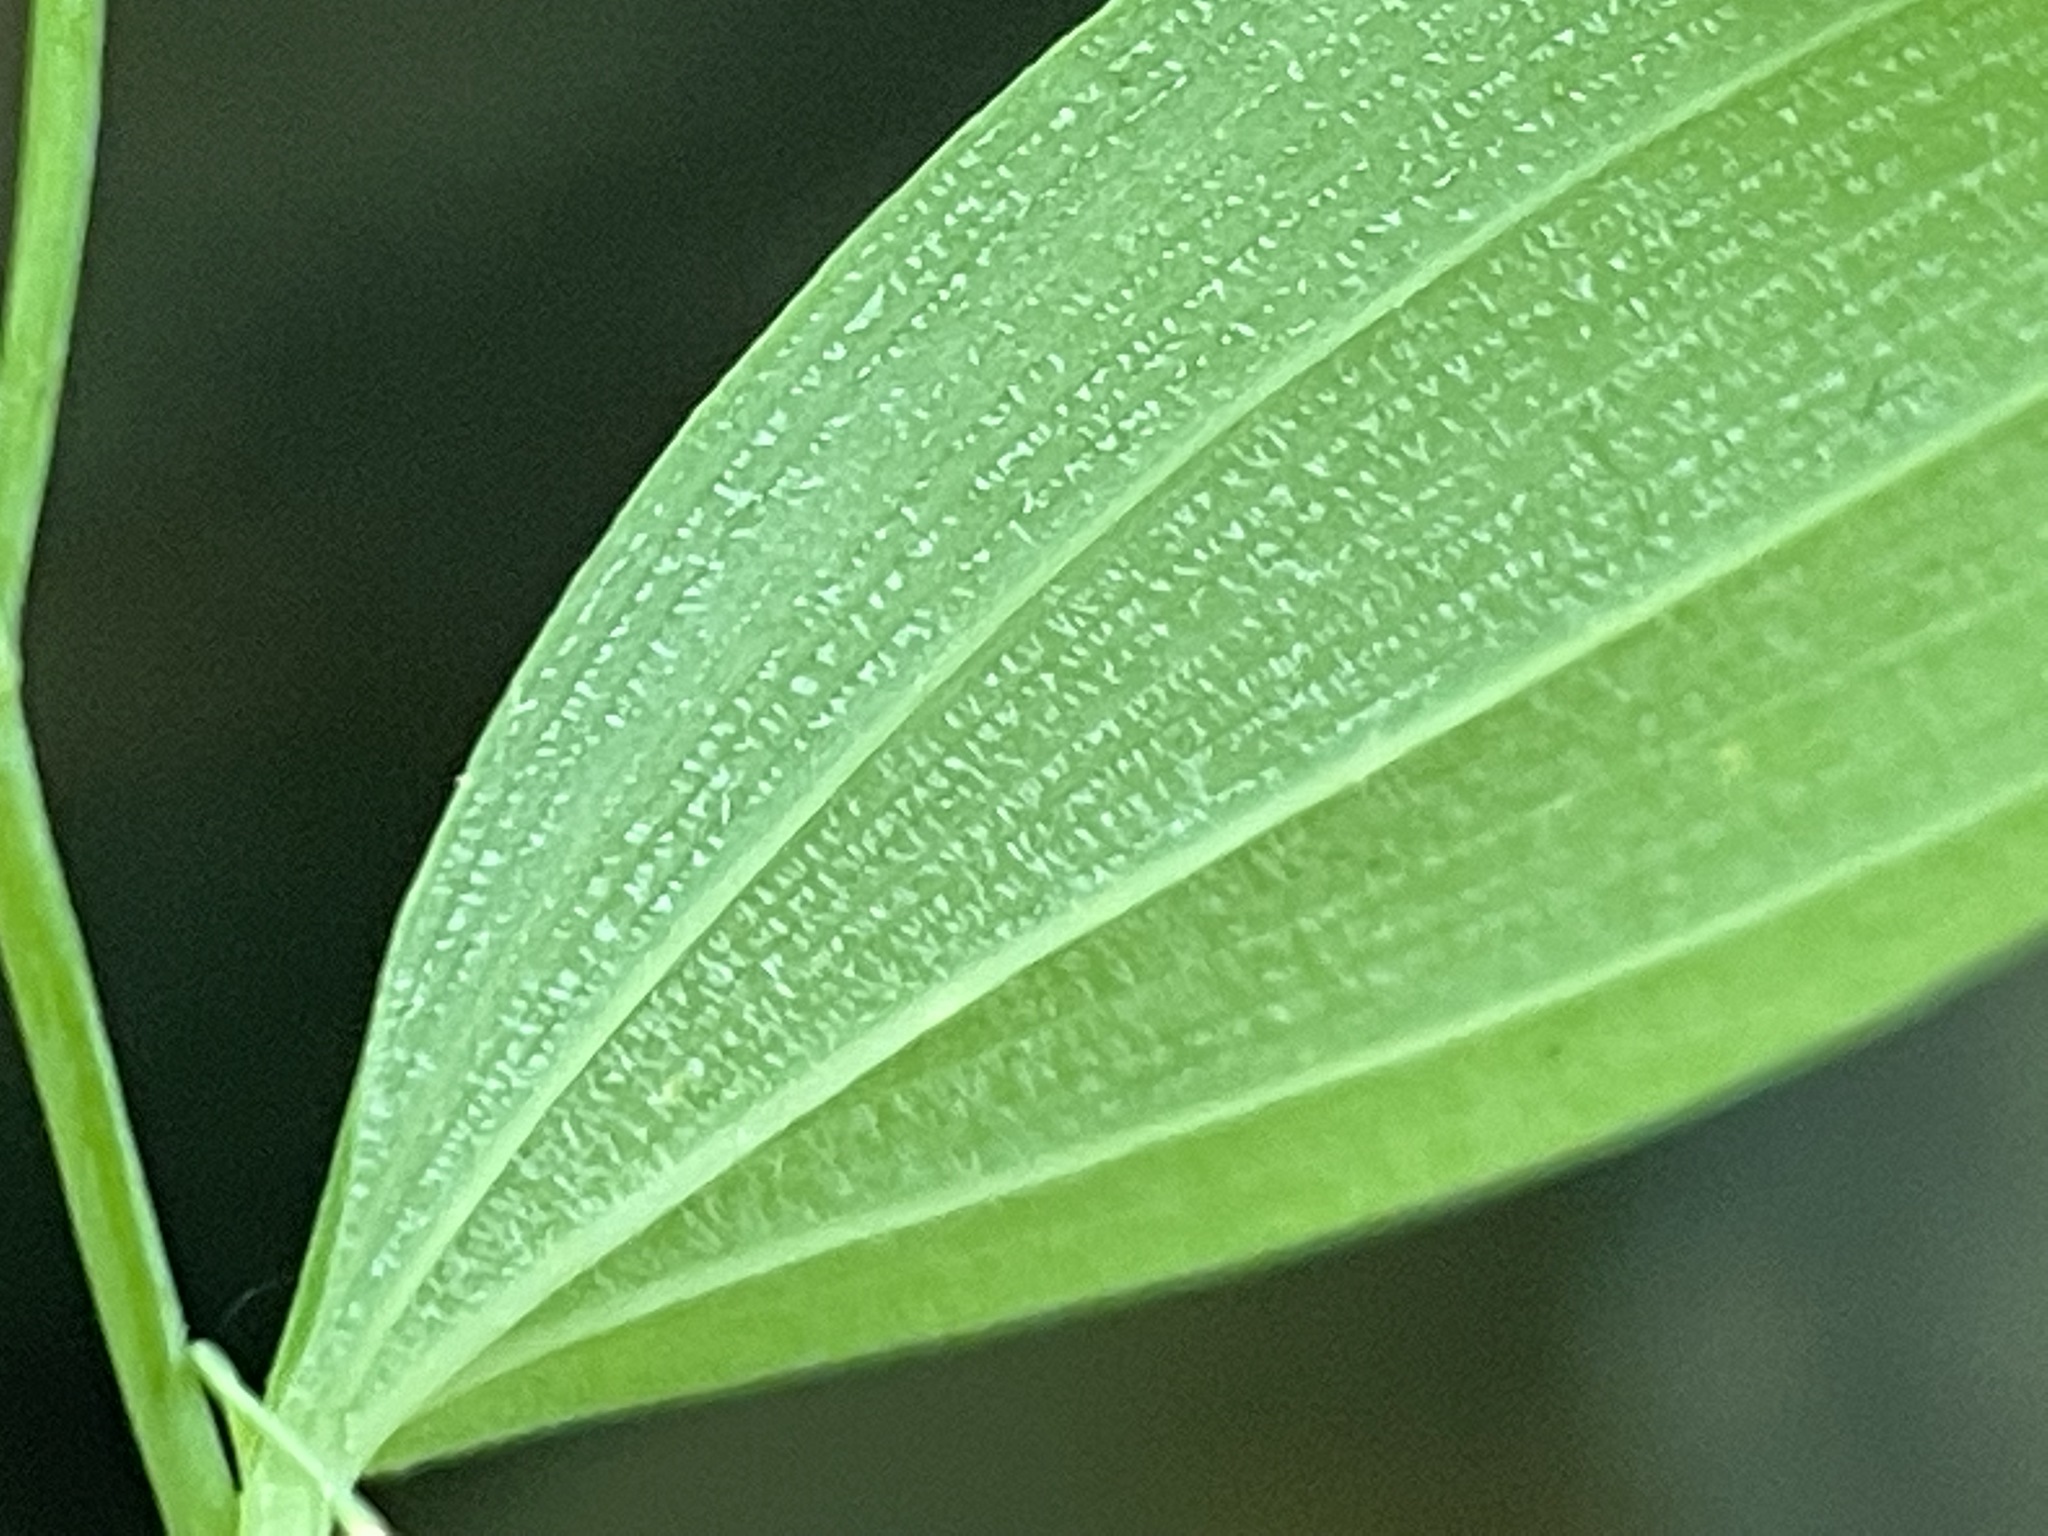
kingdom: Plantae
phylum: Tracheophyta
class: Liliopsida
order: Asparagales
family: Asparagaceae
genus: Polygonatum
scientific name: Polygonatum pubescens
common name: Downy solomon's seal
